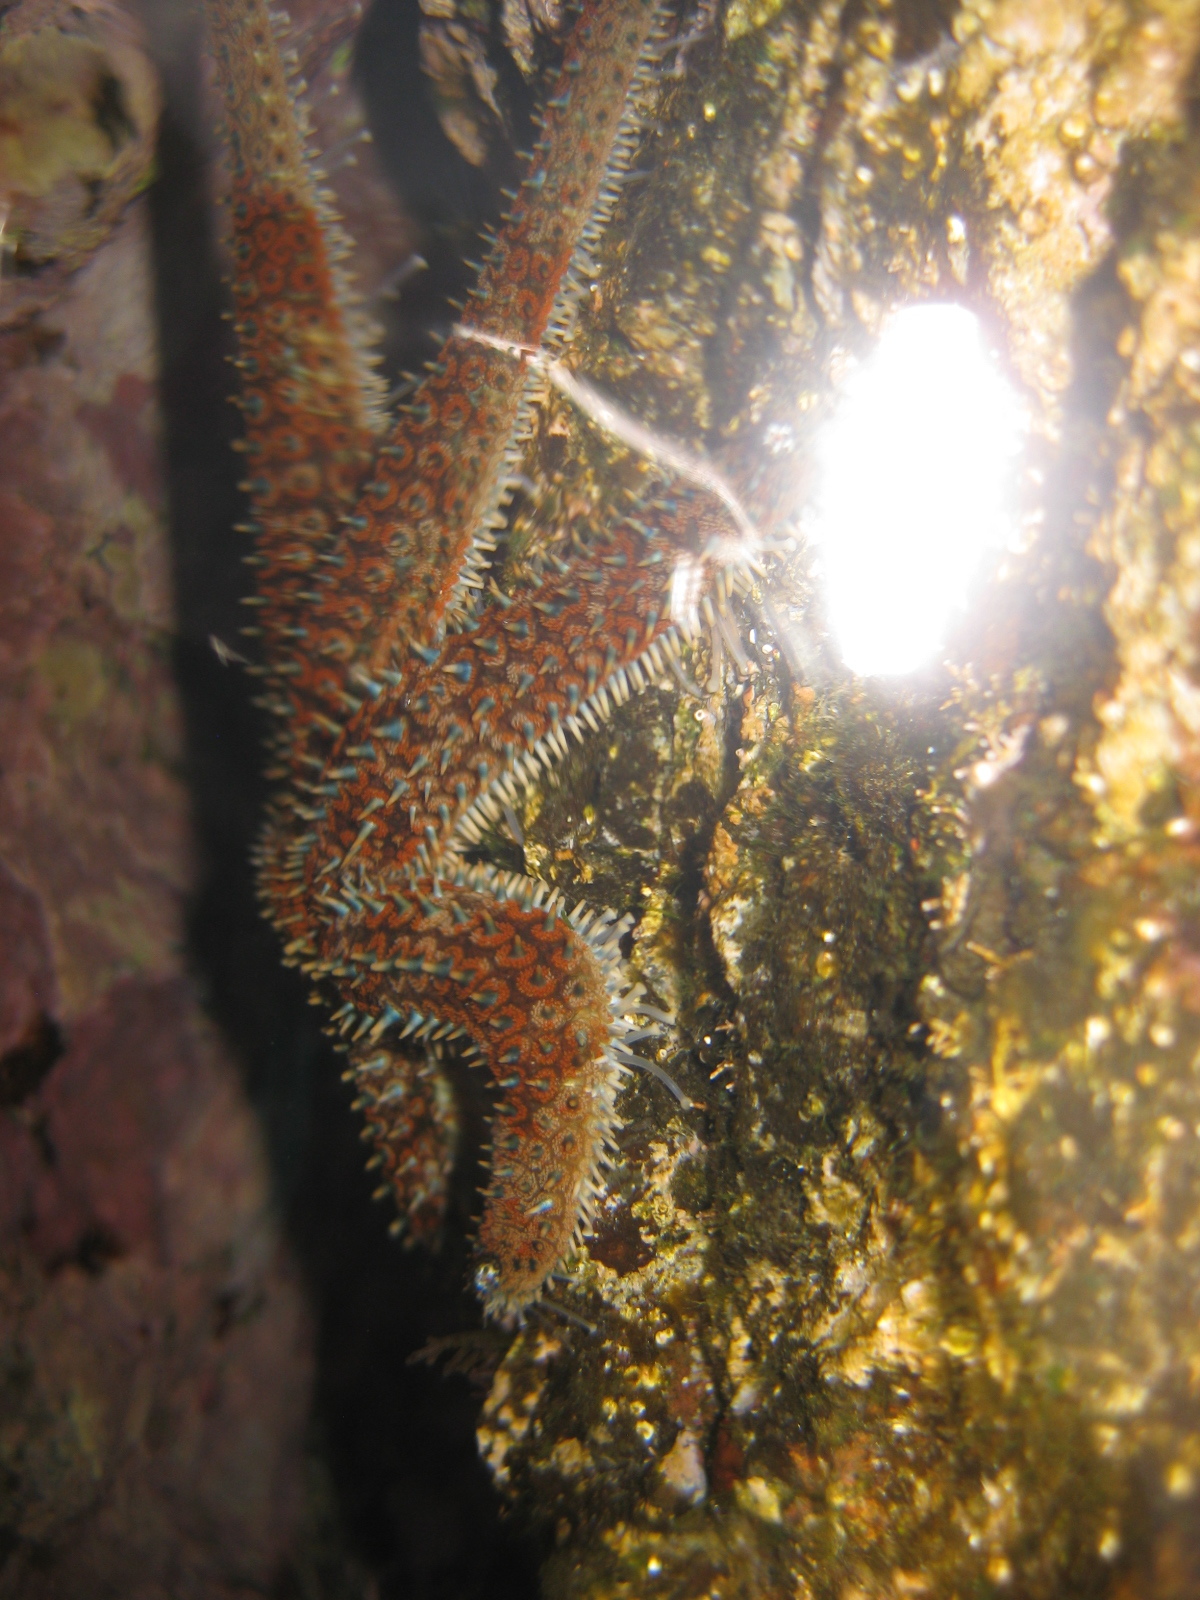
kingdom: Animalia
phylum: Echinodermata
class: Asteroidea
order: Forcipulatida
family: Asteriidae
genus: Coscinasterias
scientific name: Coscinasterias muricata
